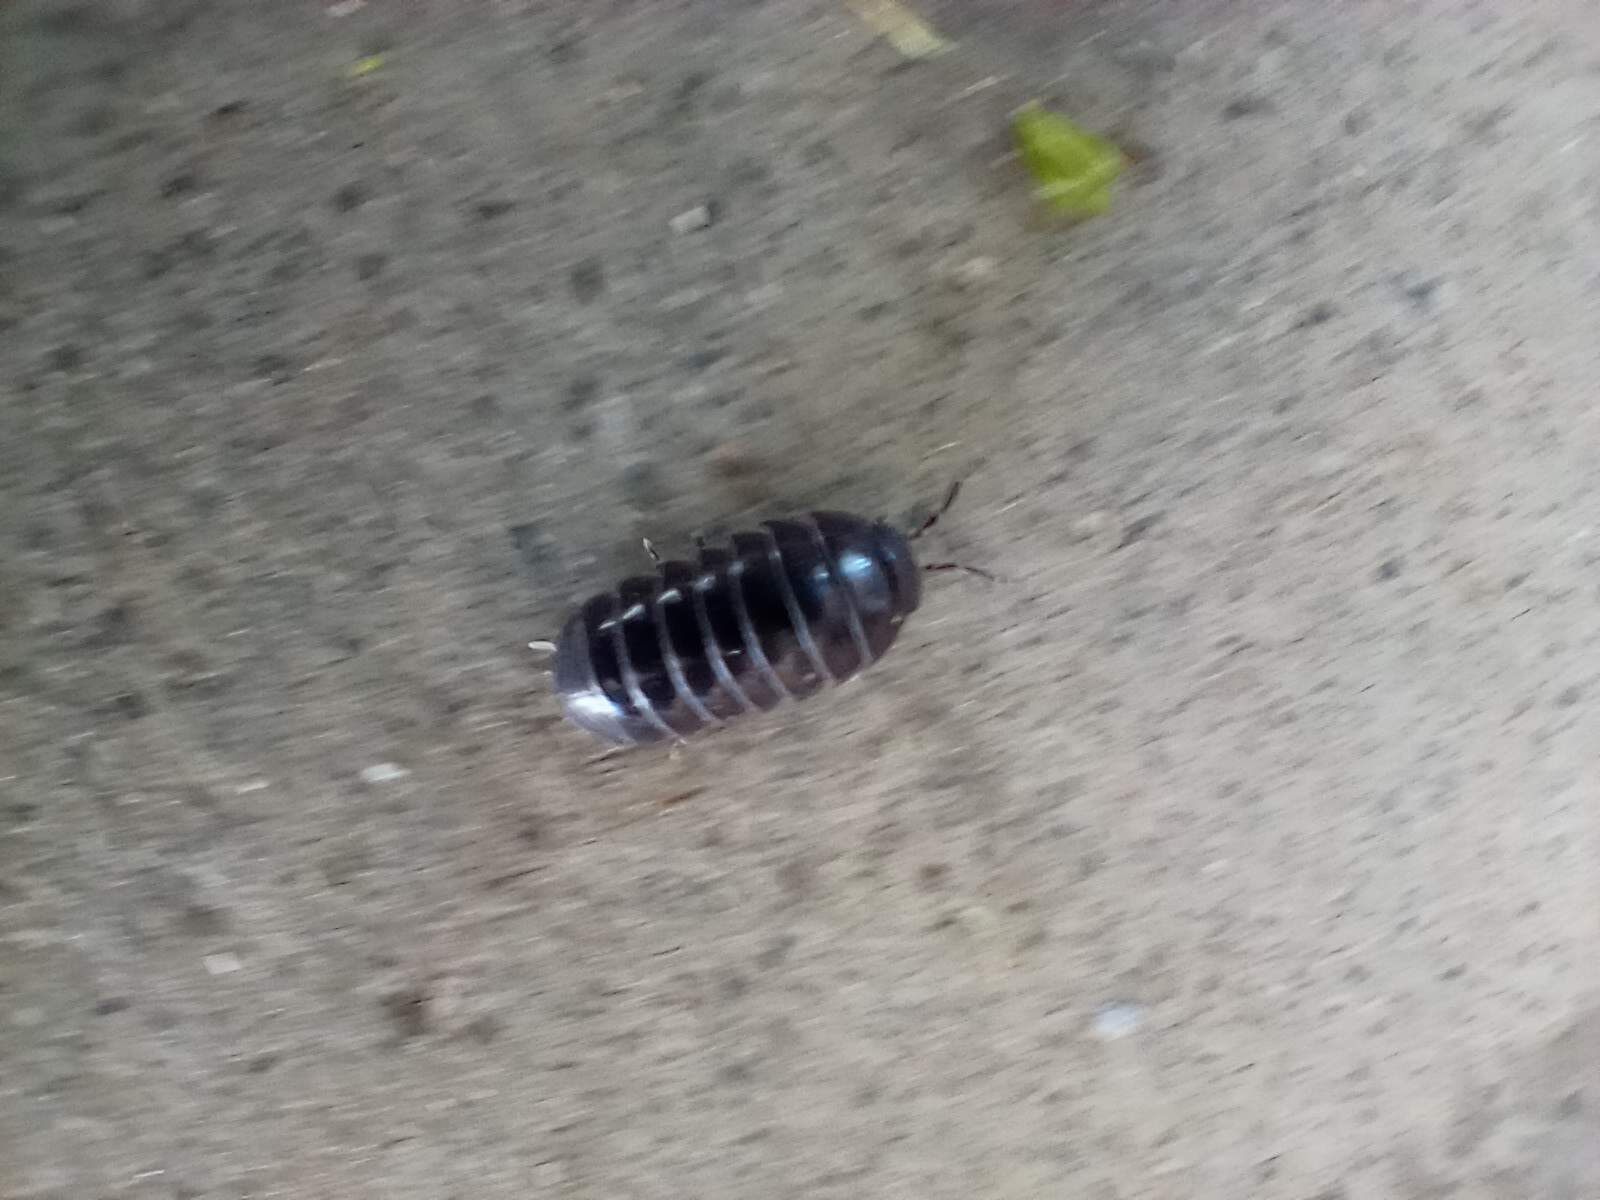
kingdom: Animalia
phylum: Arthropoda
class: Malacostraca
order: Isopoda
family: Armadillidiidae
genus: Armadillidium
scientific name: Armadillidium vulgare
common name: Common pill woodlouse
